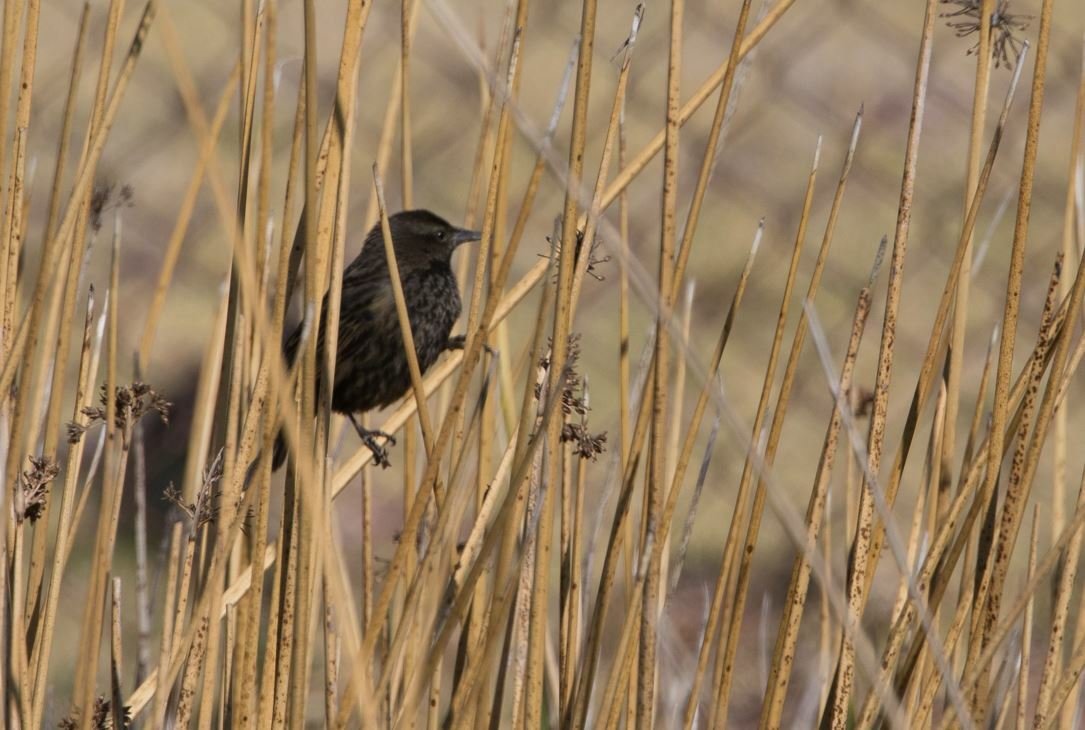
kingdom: Animalia
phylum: Chordata
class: Aves
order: Passeriformes
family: Icteridae
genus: Agelasticus
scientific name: Agelasticus thilius
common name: Yellow-winged blackbird
